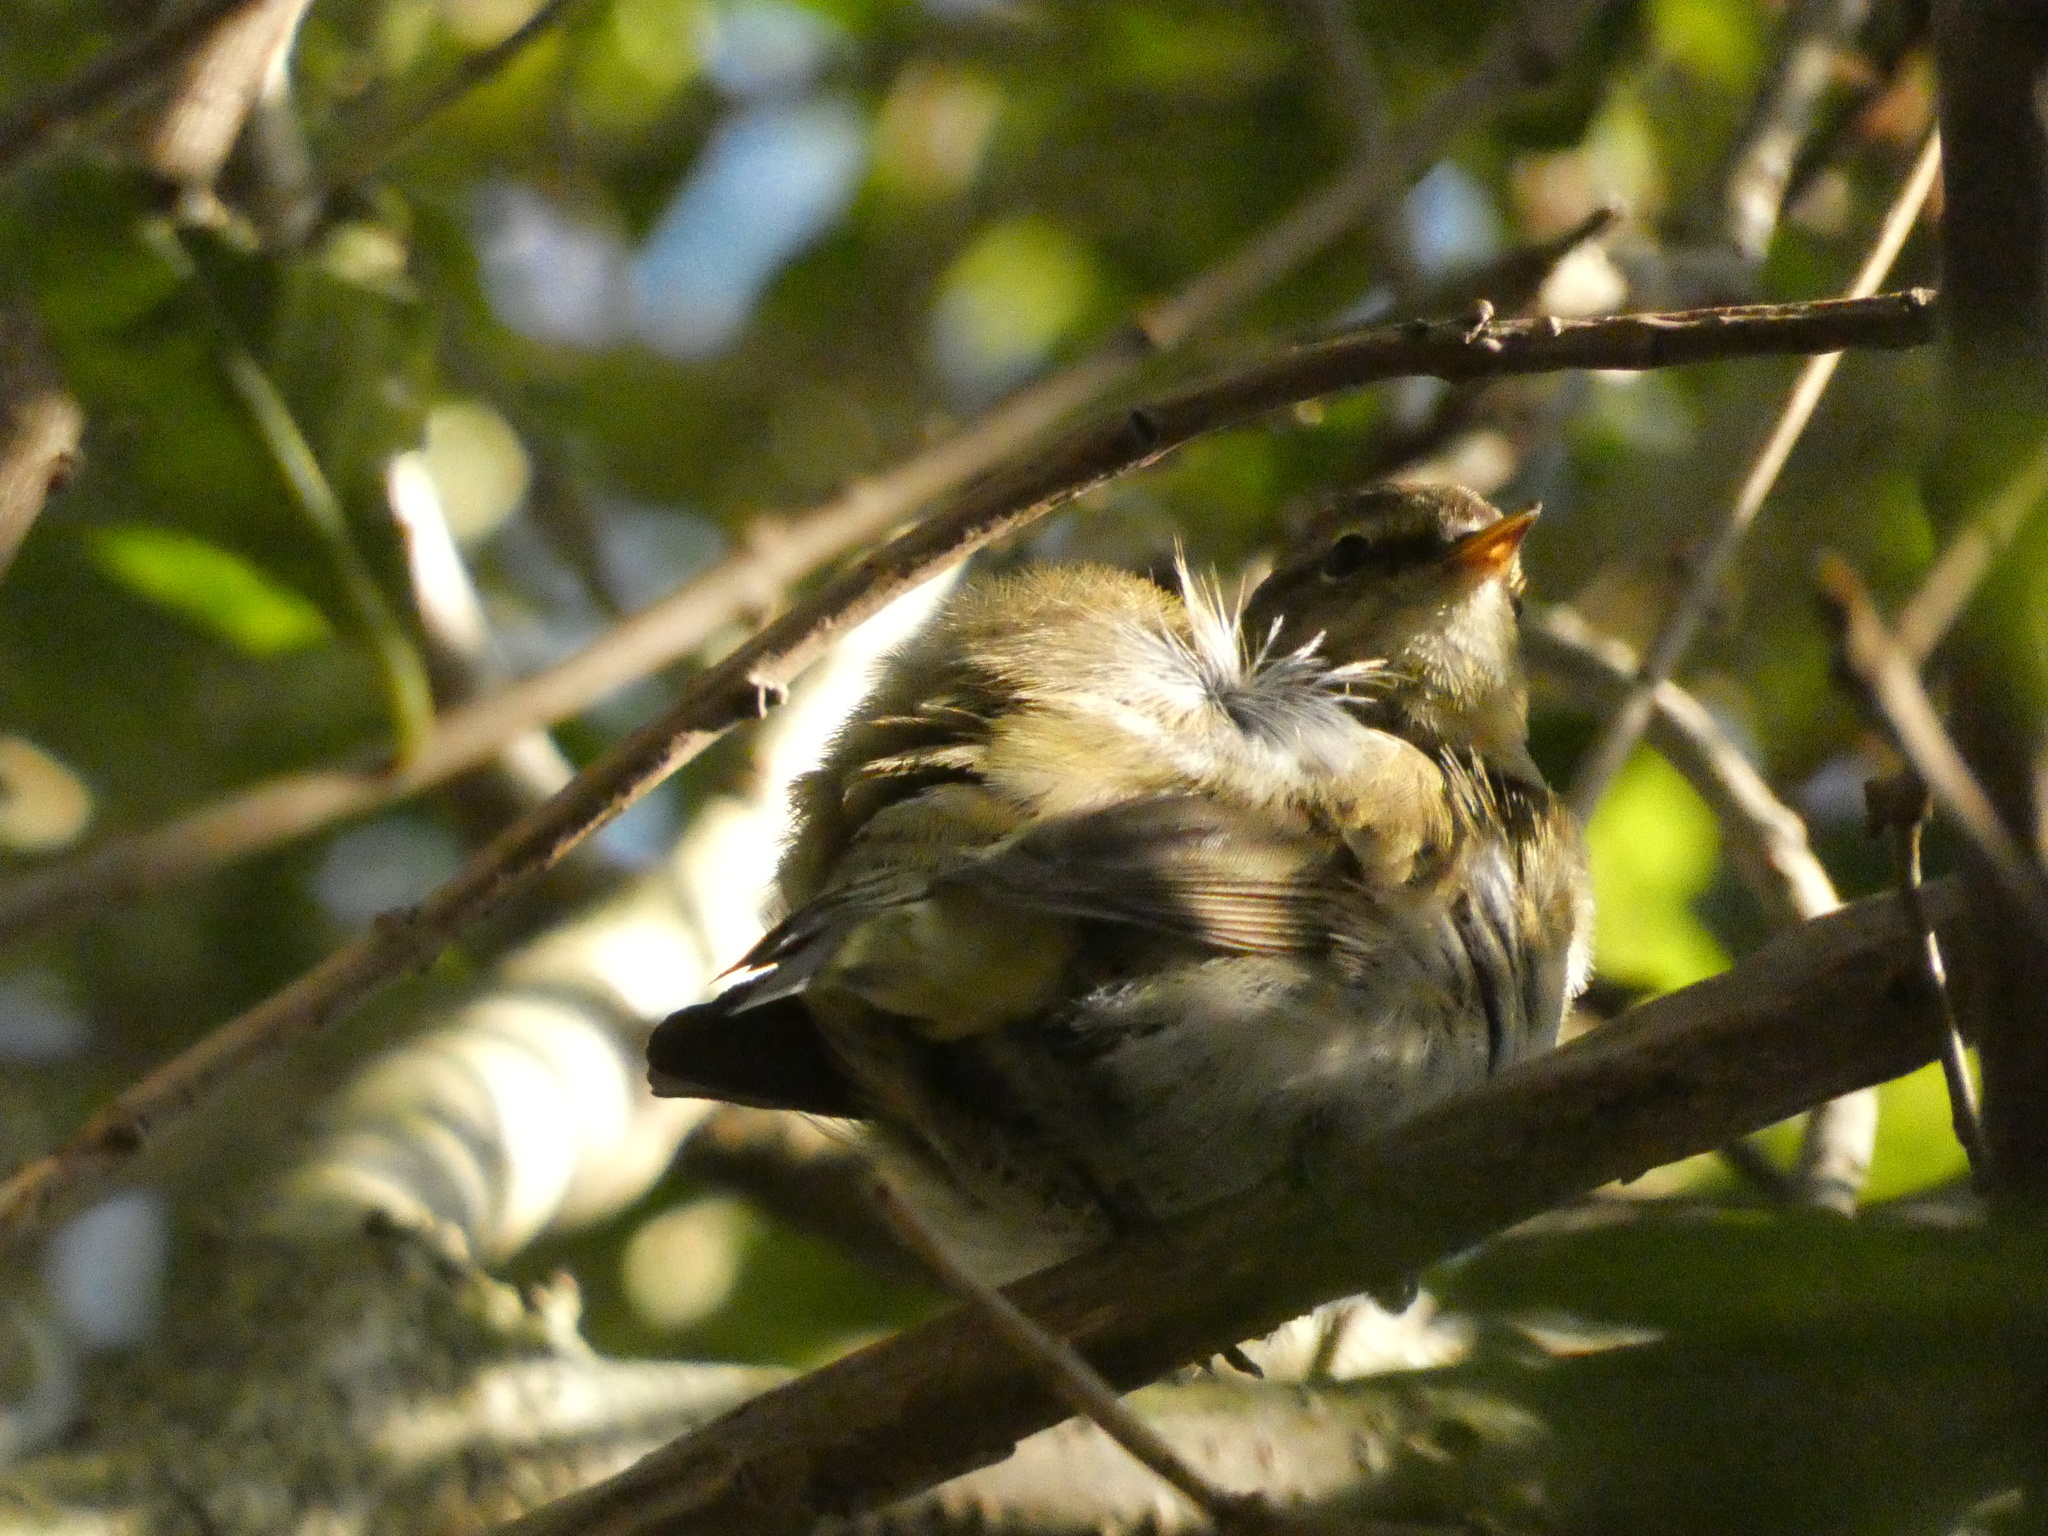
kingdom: Animalia
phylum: Chordata
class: Aves
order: Passeriformes
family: Phylloscopidae
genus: Phylloscopus
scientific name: Phylloscopus collybita
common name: Common chiffchaff
